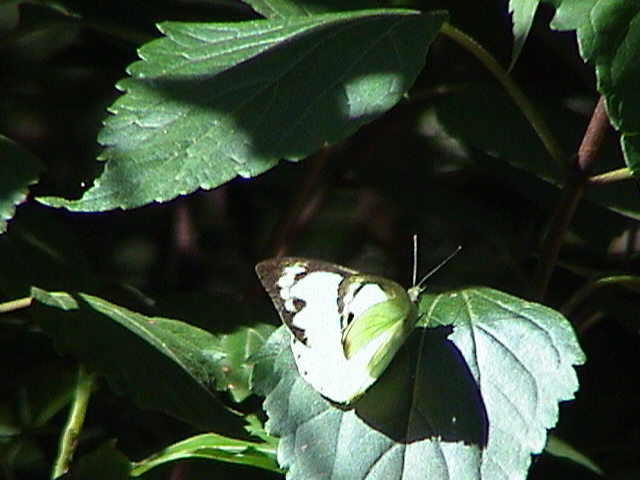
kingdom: Animalia
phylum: Arthropoda
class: Insecta
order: Lepidoptera
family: Pieridae
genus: Appias
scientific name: Appias albina
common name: Common albatross
